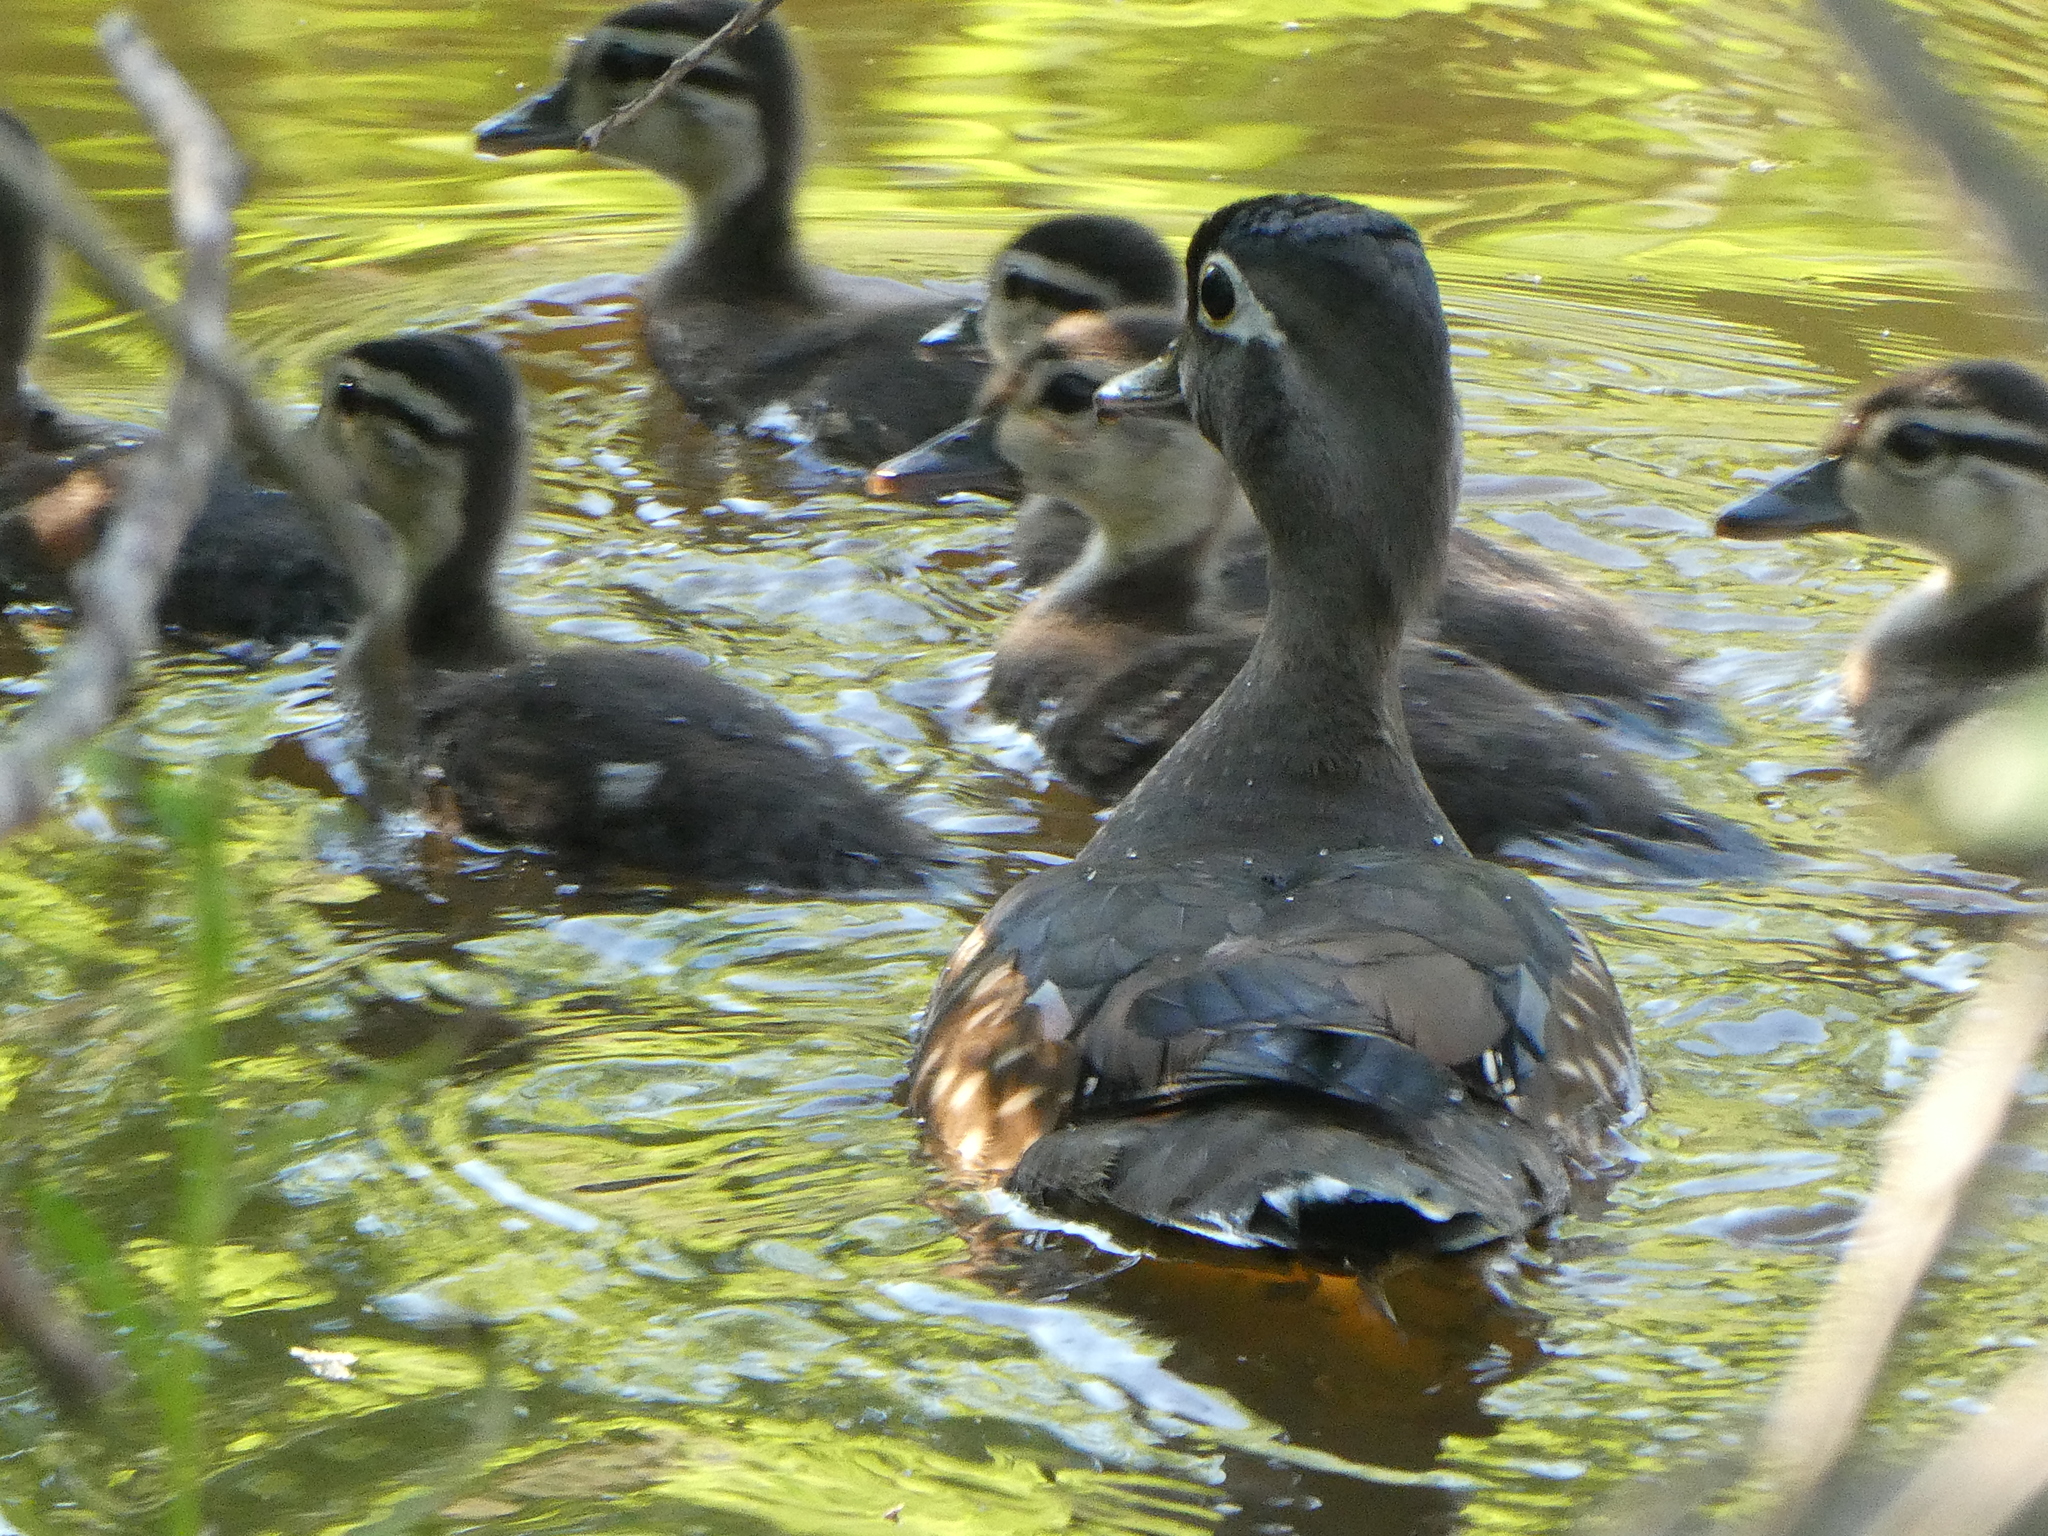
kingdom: Animalia
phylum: Chordata
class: Aves
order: Anseriformes
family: Anatidae
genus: Aix
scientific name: Aix sponsa
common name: Wood duck
